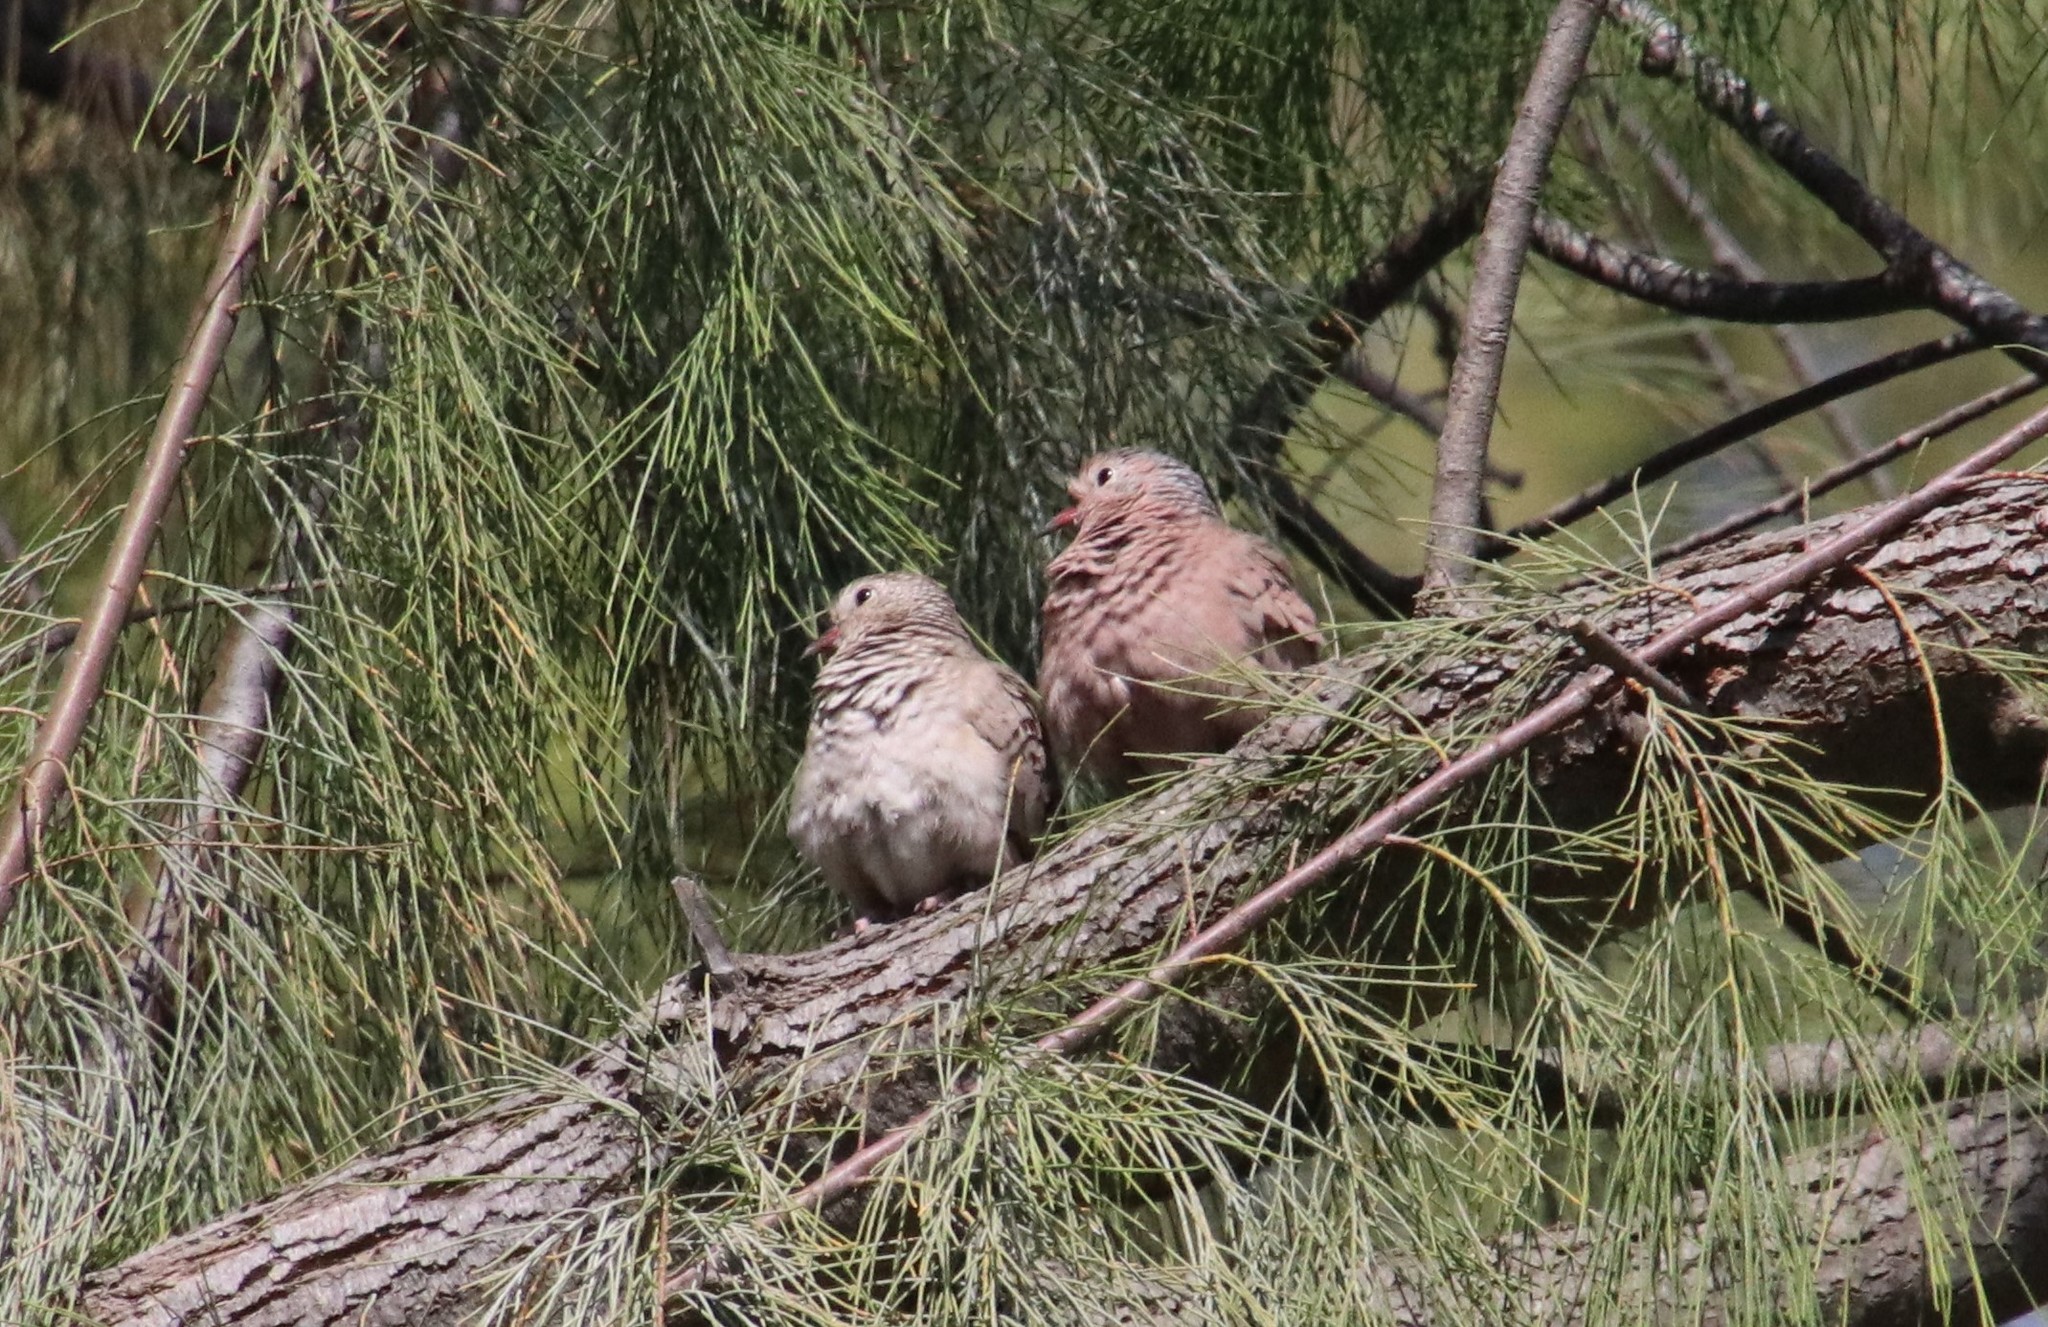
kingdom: Animalia
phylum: Chordata
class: Aves
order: Columbiformes
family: Columbidae
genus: Columbina
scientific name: Columbina passerina
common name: Common ground-dove
